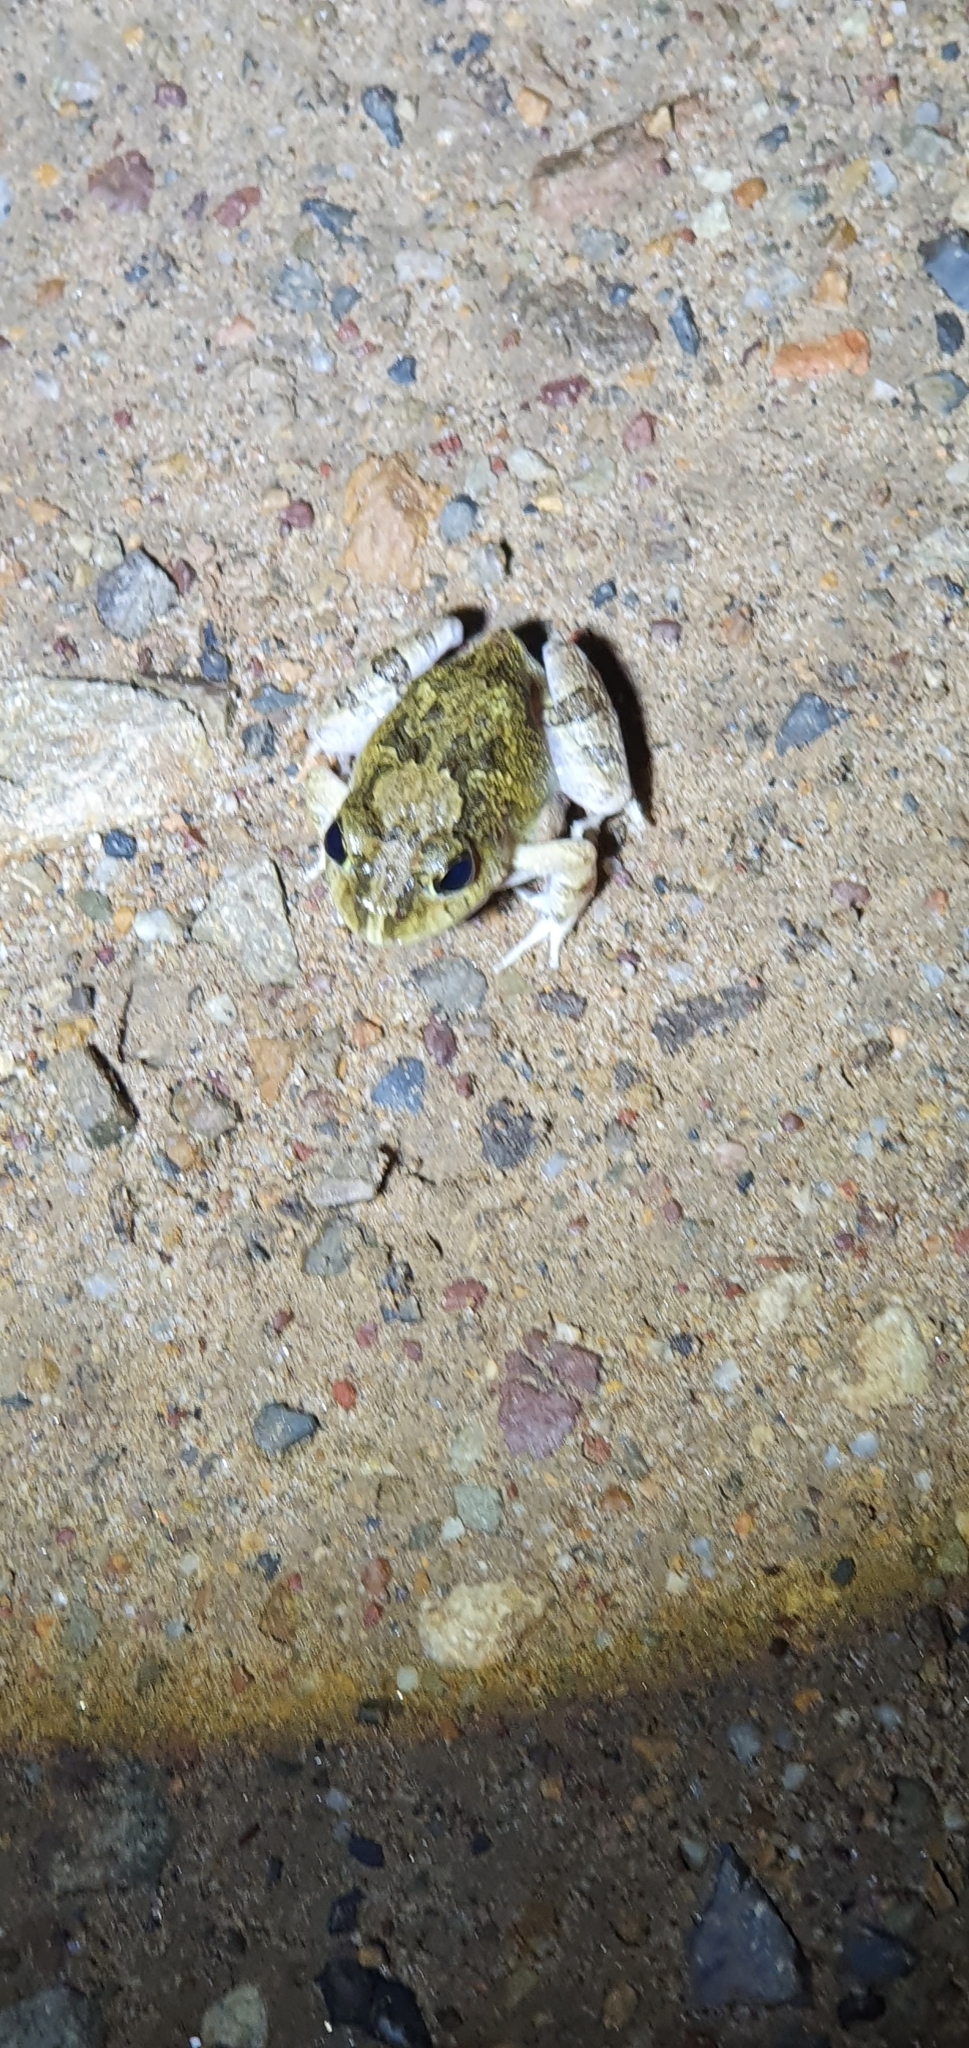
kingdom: Animalia
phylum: Chordata
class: Amphibia
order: Anura
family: Limnodynastidae
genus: Platyplectrum
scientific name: Platyplectrum ornatum
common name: Ornate burrowing frog
